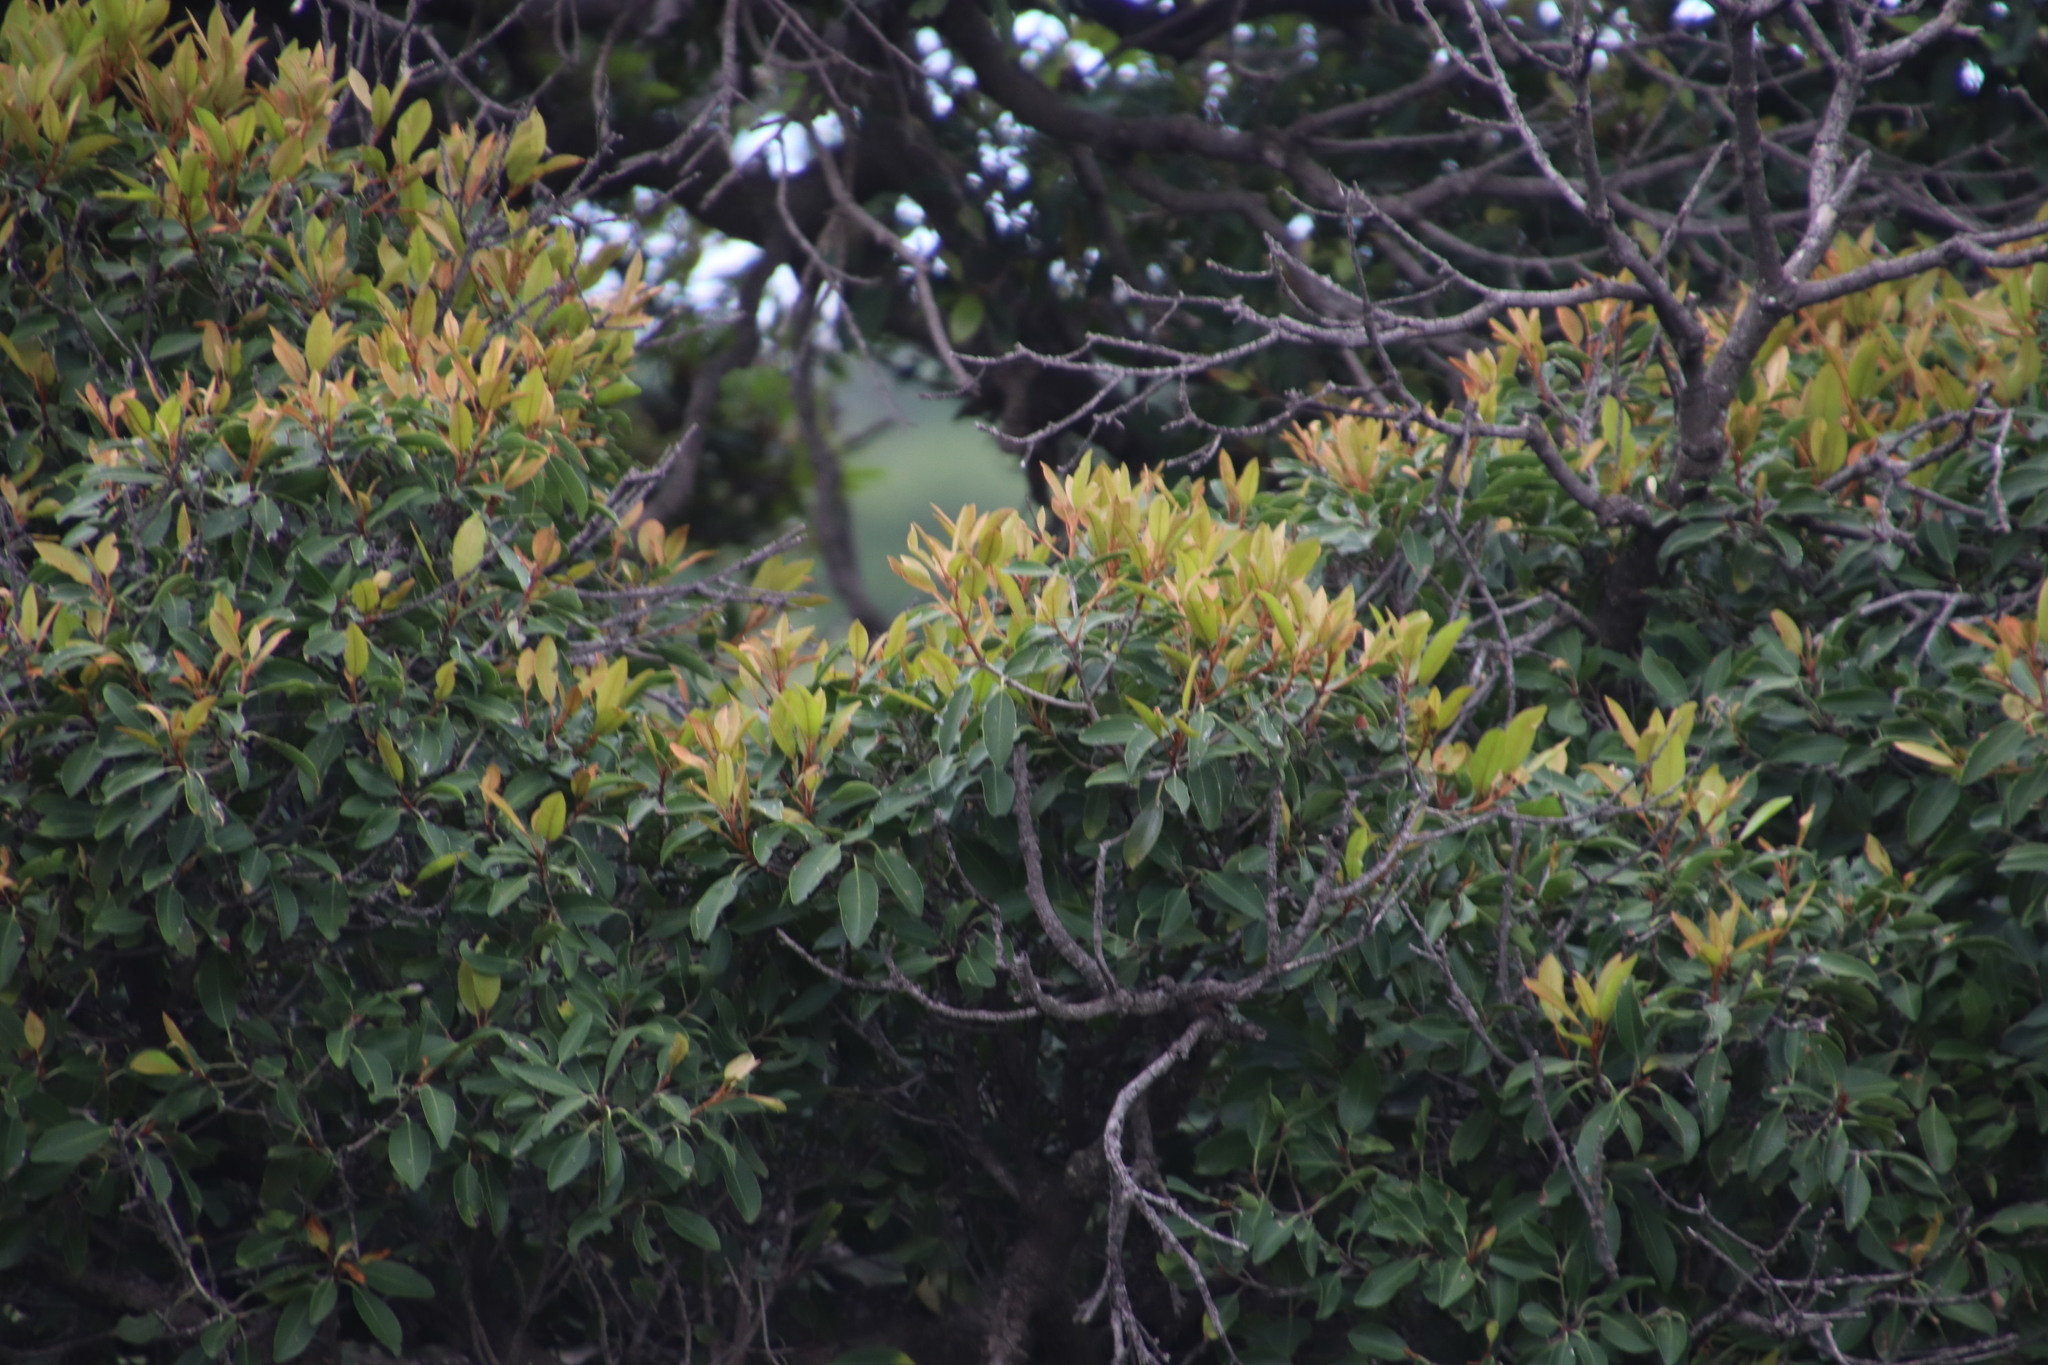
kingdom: Plantae
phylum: Tracheophyta
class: Magnoliopsida
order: Ericales
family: Sapotaceae
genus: Mimusops
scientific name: Mimusops zeyheri
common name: Transvaal red milkwood
